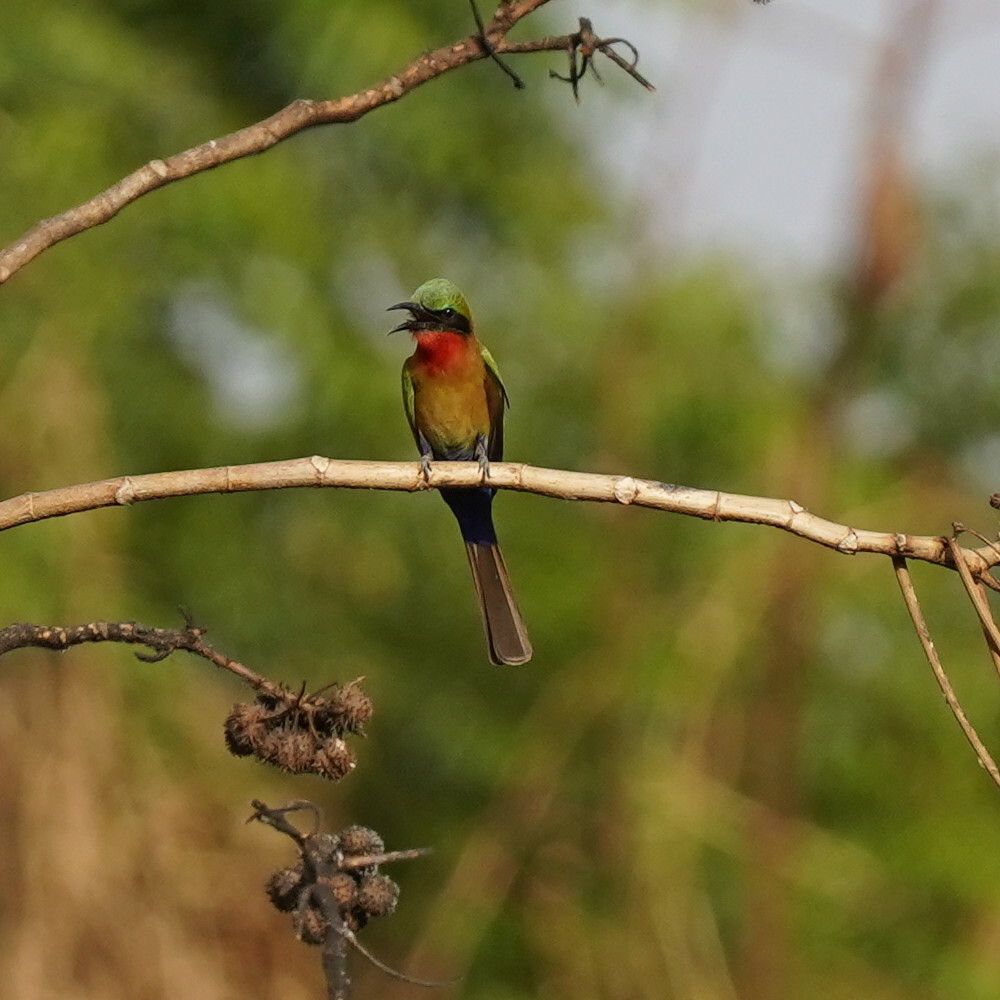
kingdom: Animalia
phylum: Chordata
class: Aves
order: Coraciiformes
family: Meropidae
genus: Merops
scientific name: Merops bulocki
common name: Red-throated bee-eater
